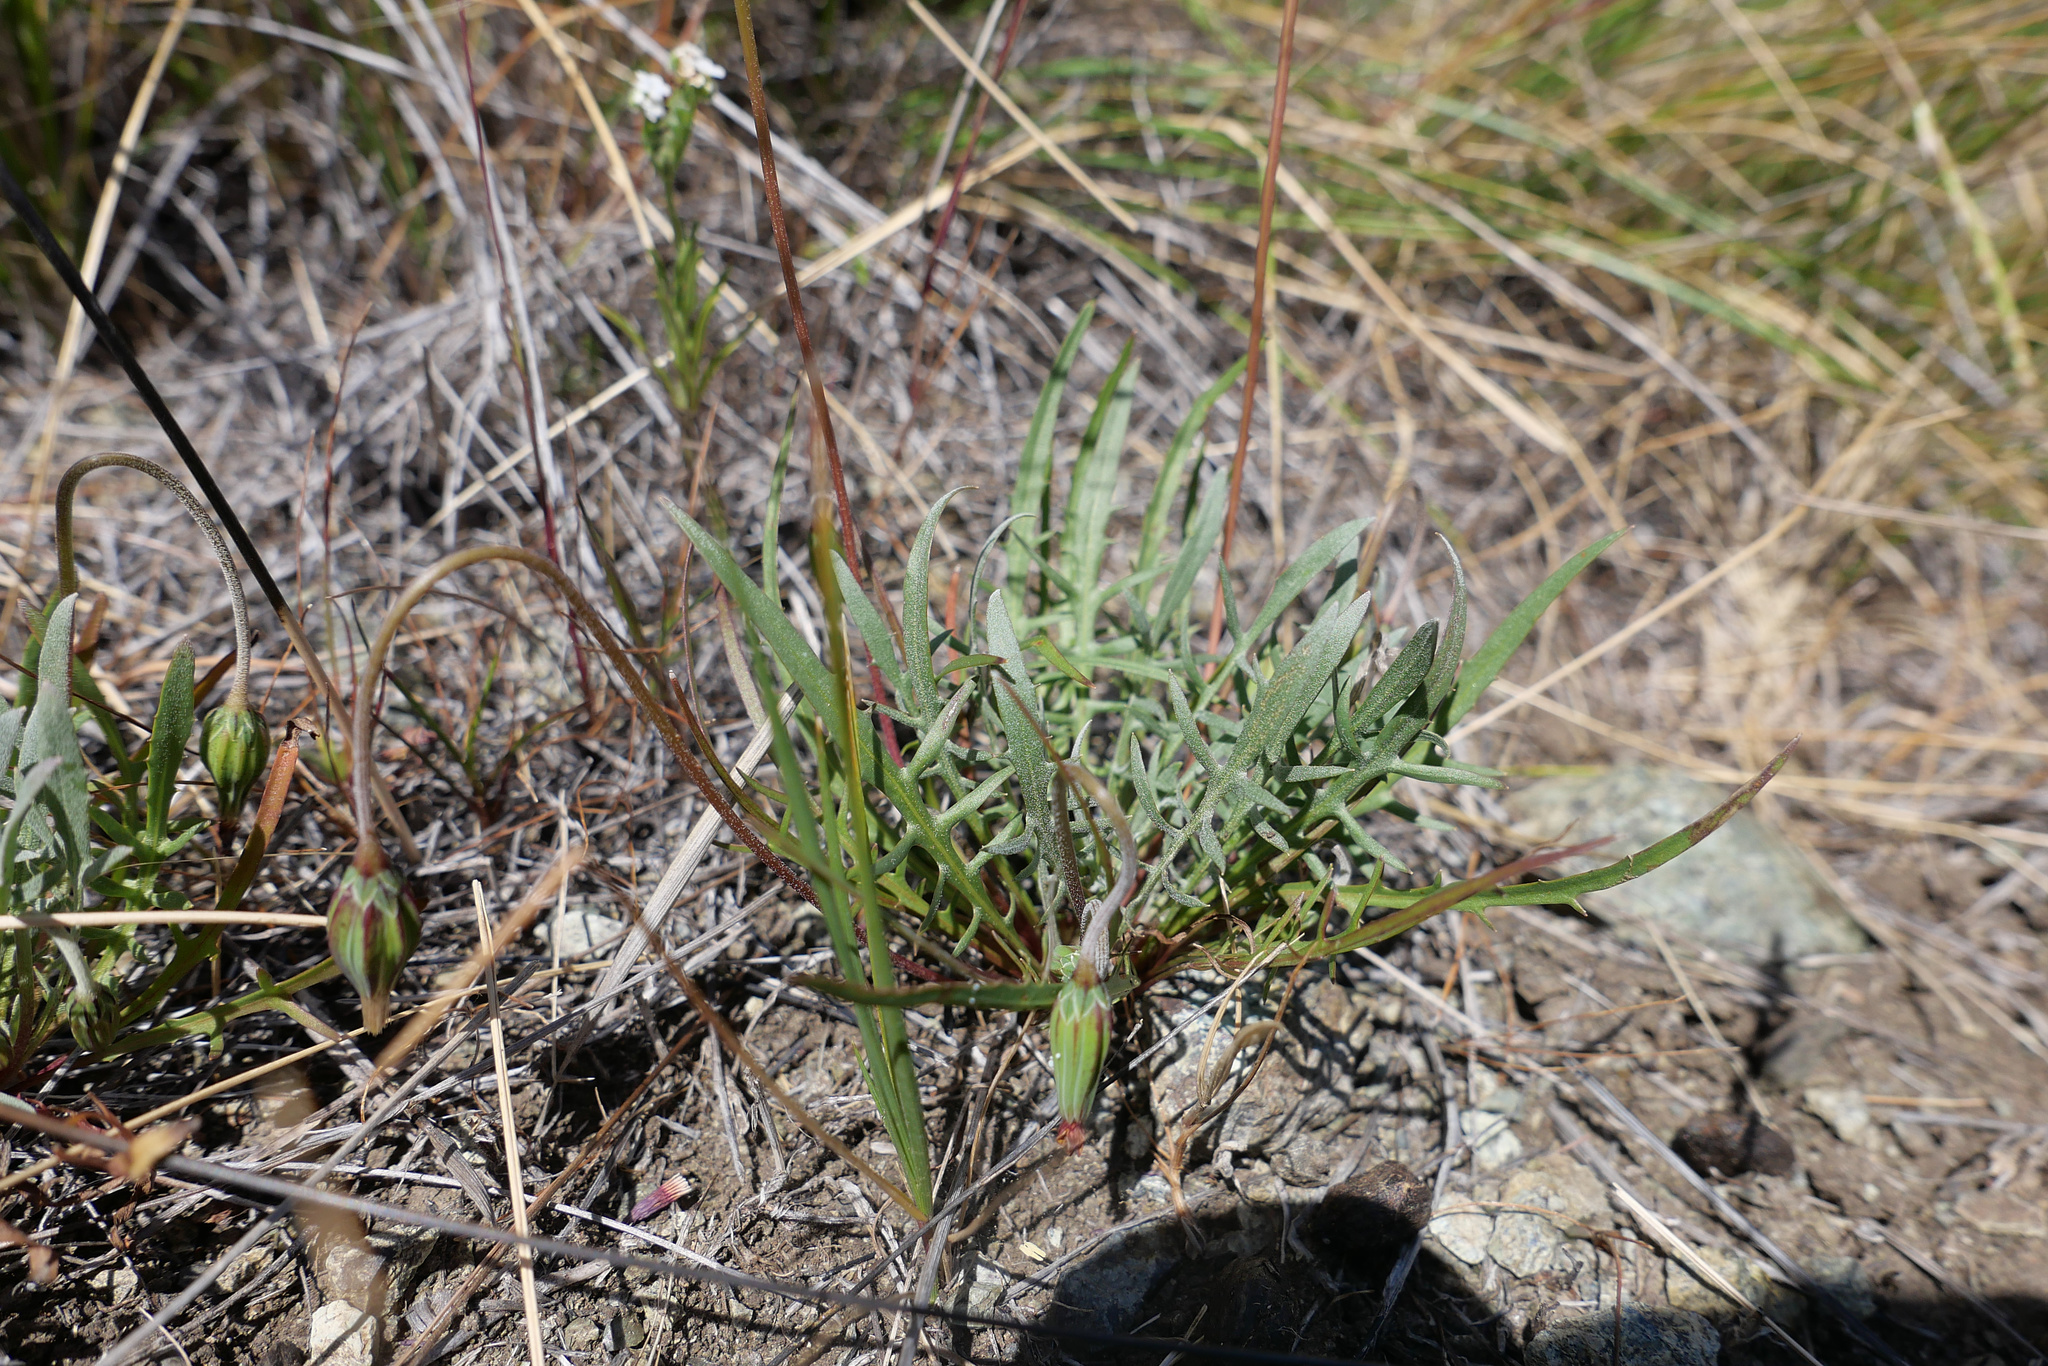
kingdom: Plantae
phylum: Tracheophyta
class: Magnoliopsida
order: Asterales
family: Asteraceae
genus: Microseris
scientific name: Microseris douglasii
